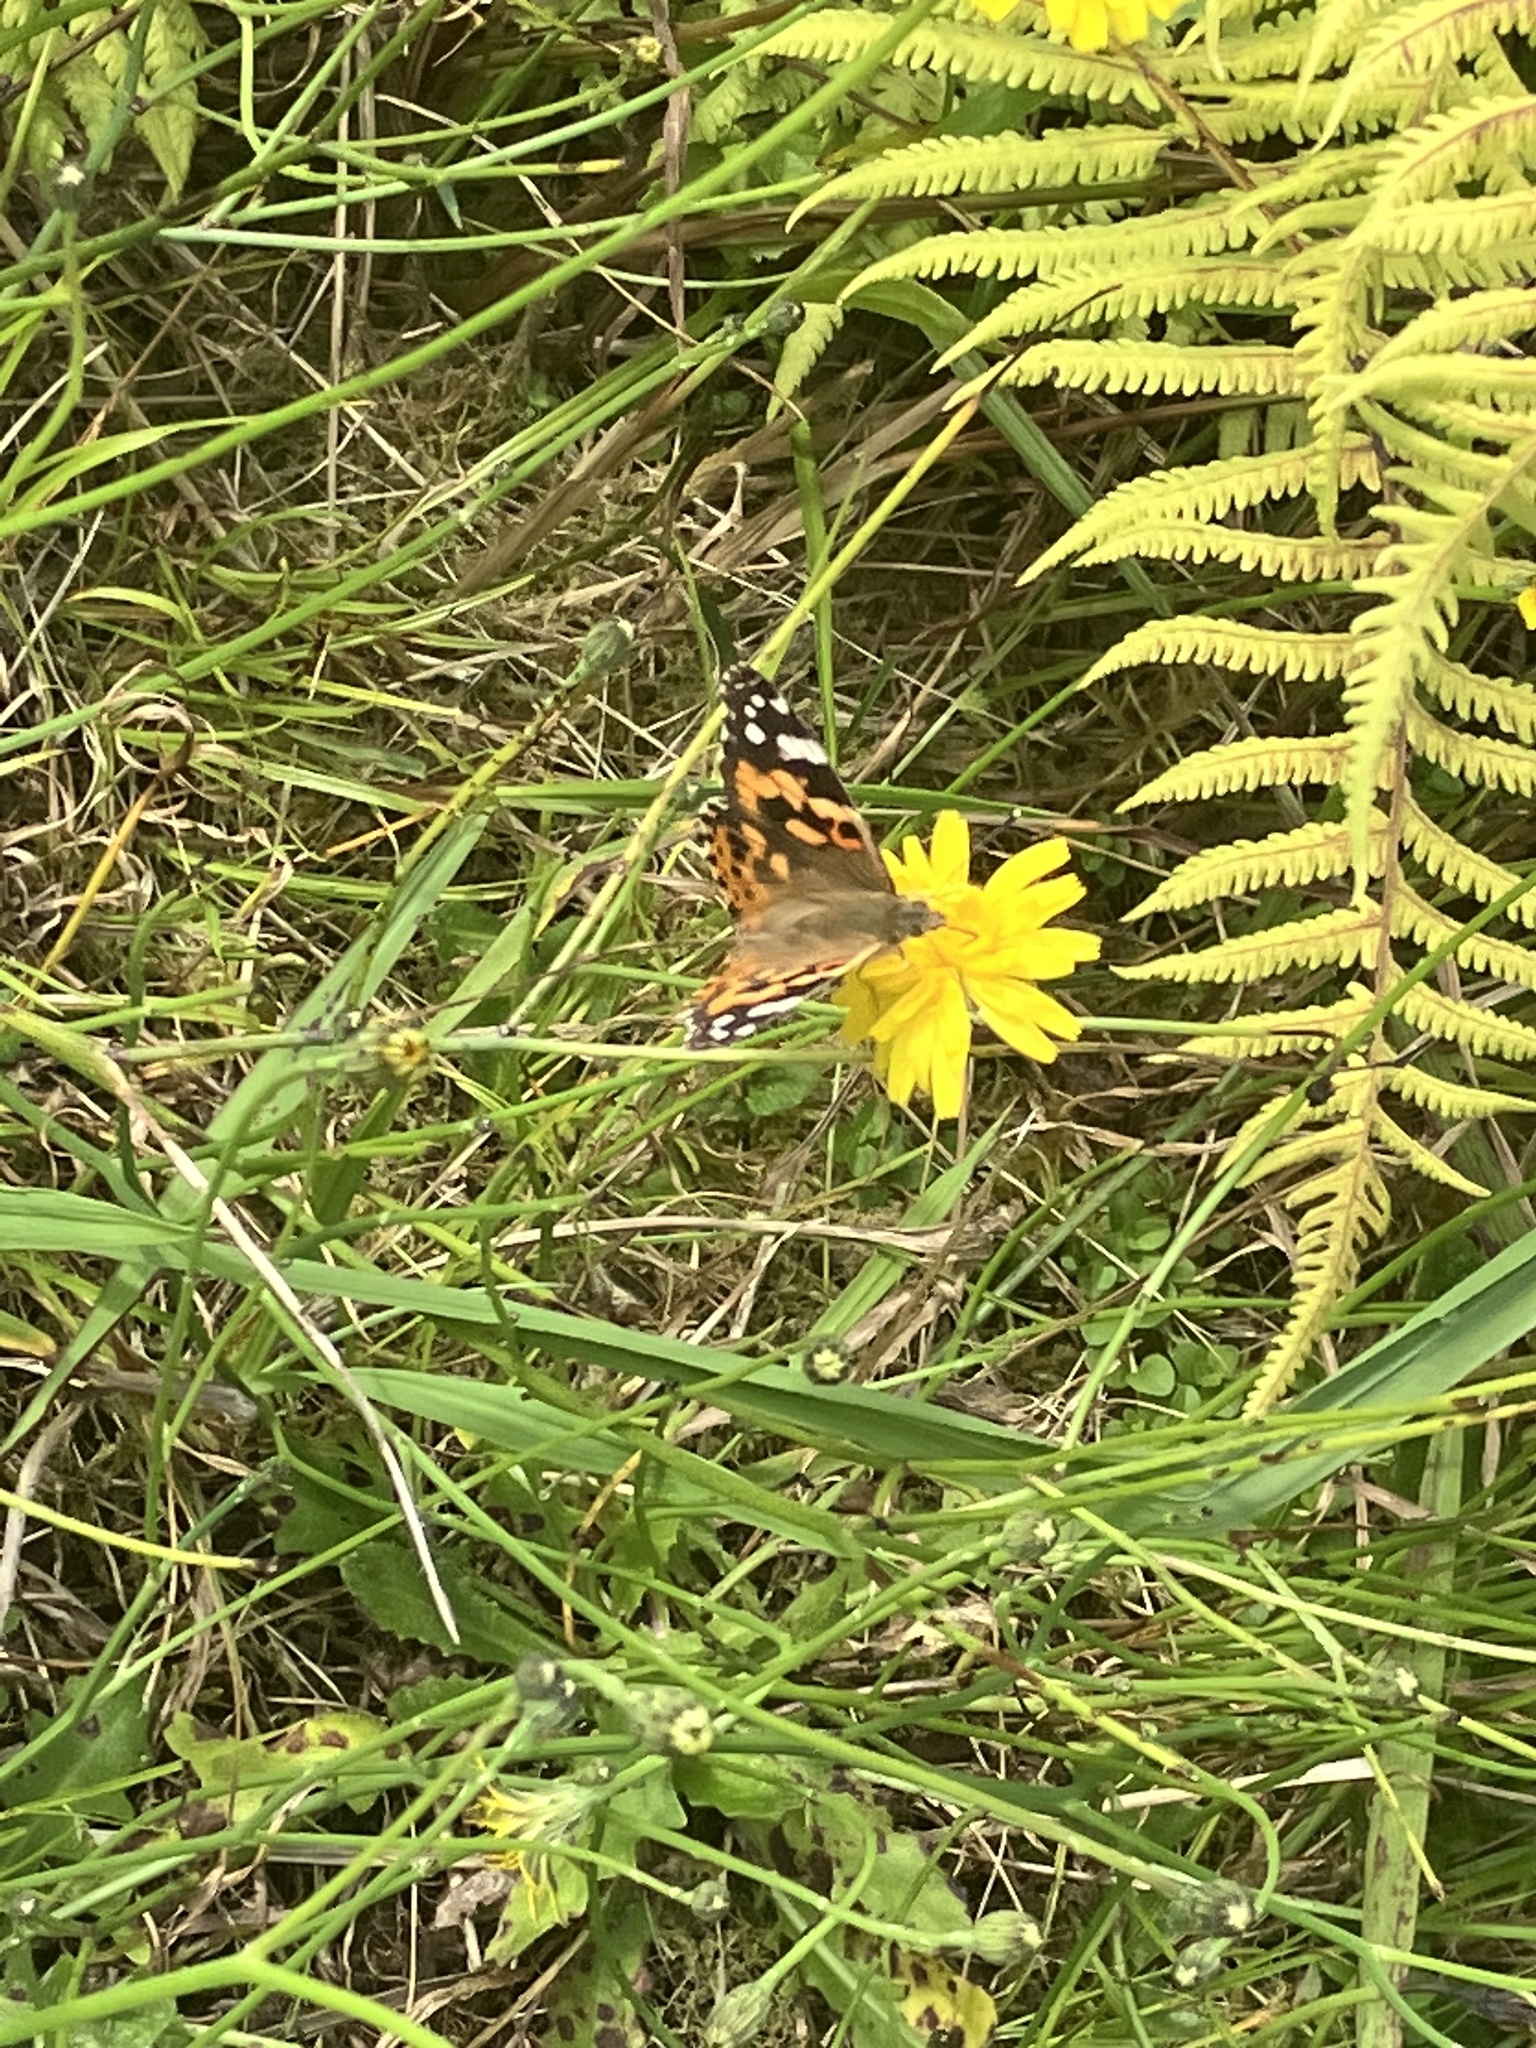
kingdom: Animalia
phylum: Arthropoda
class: Insecta
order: Lepidoptera
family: Nymphalidae
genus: Vanessa
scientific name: Vanessa cardui
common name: Painted lady
